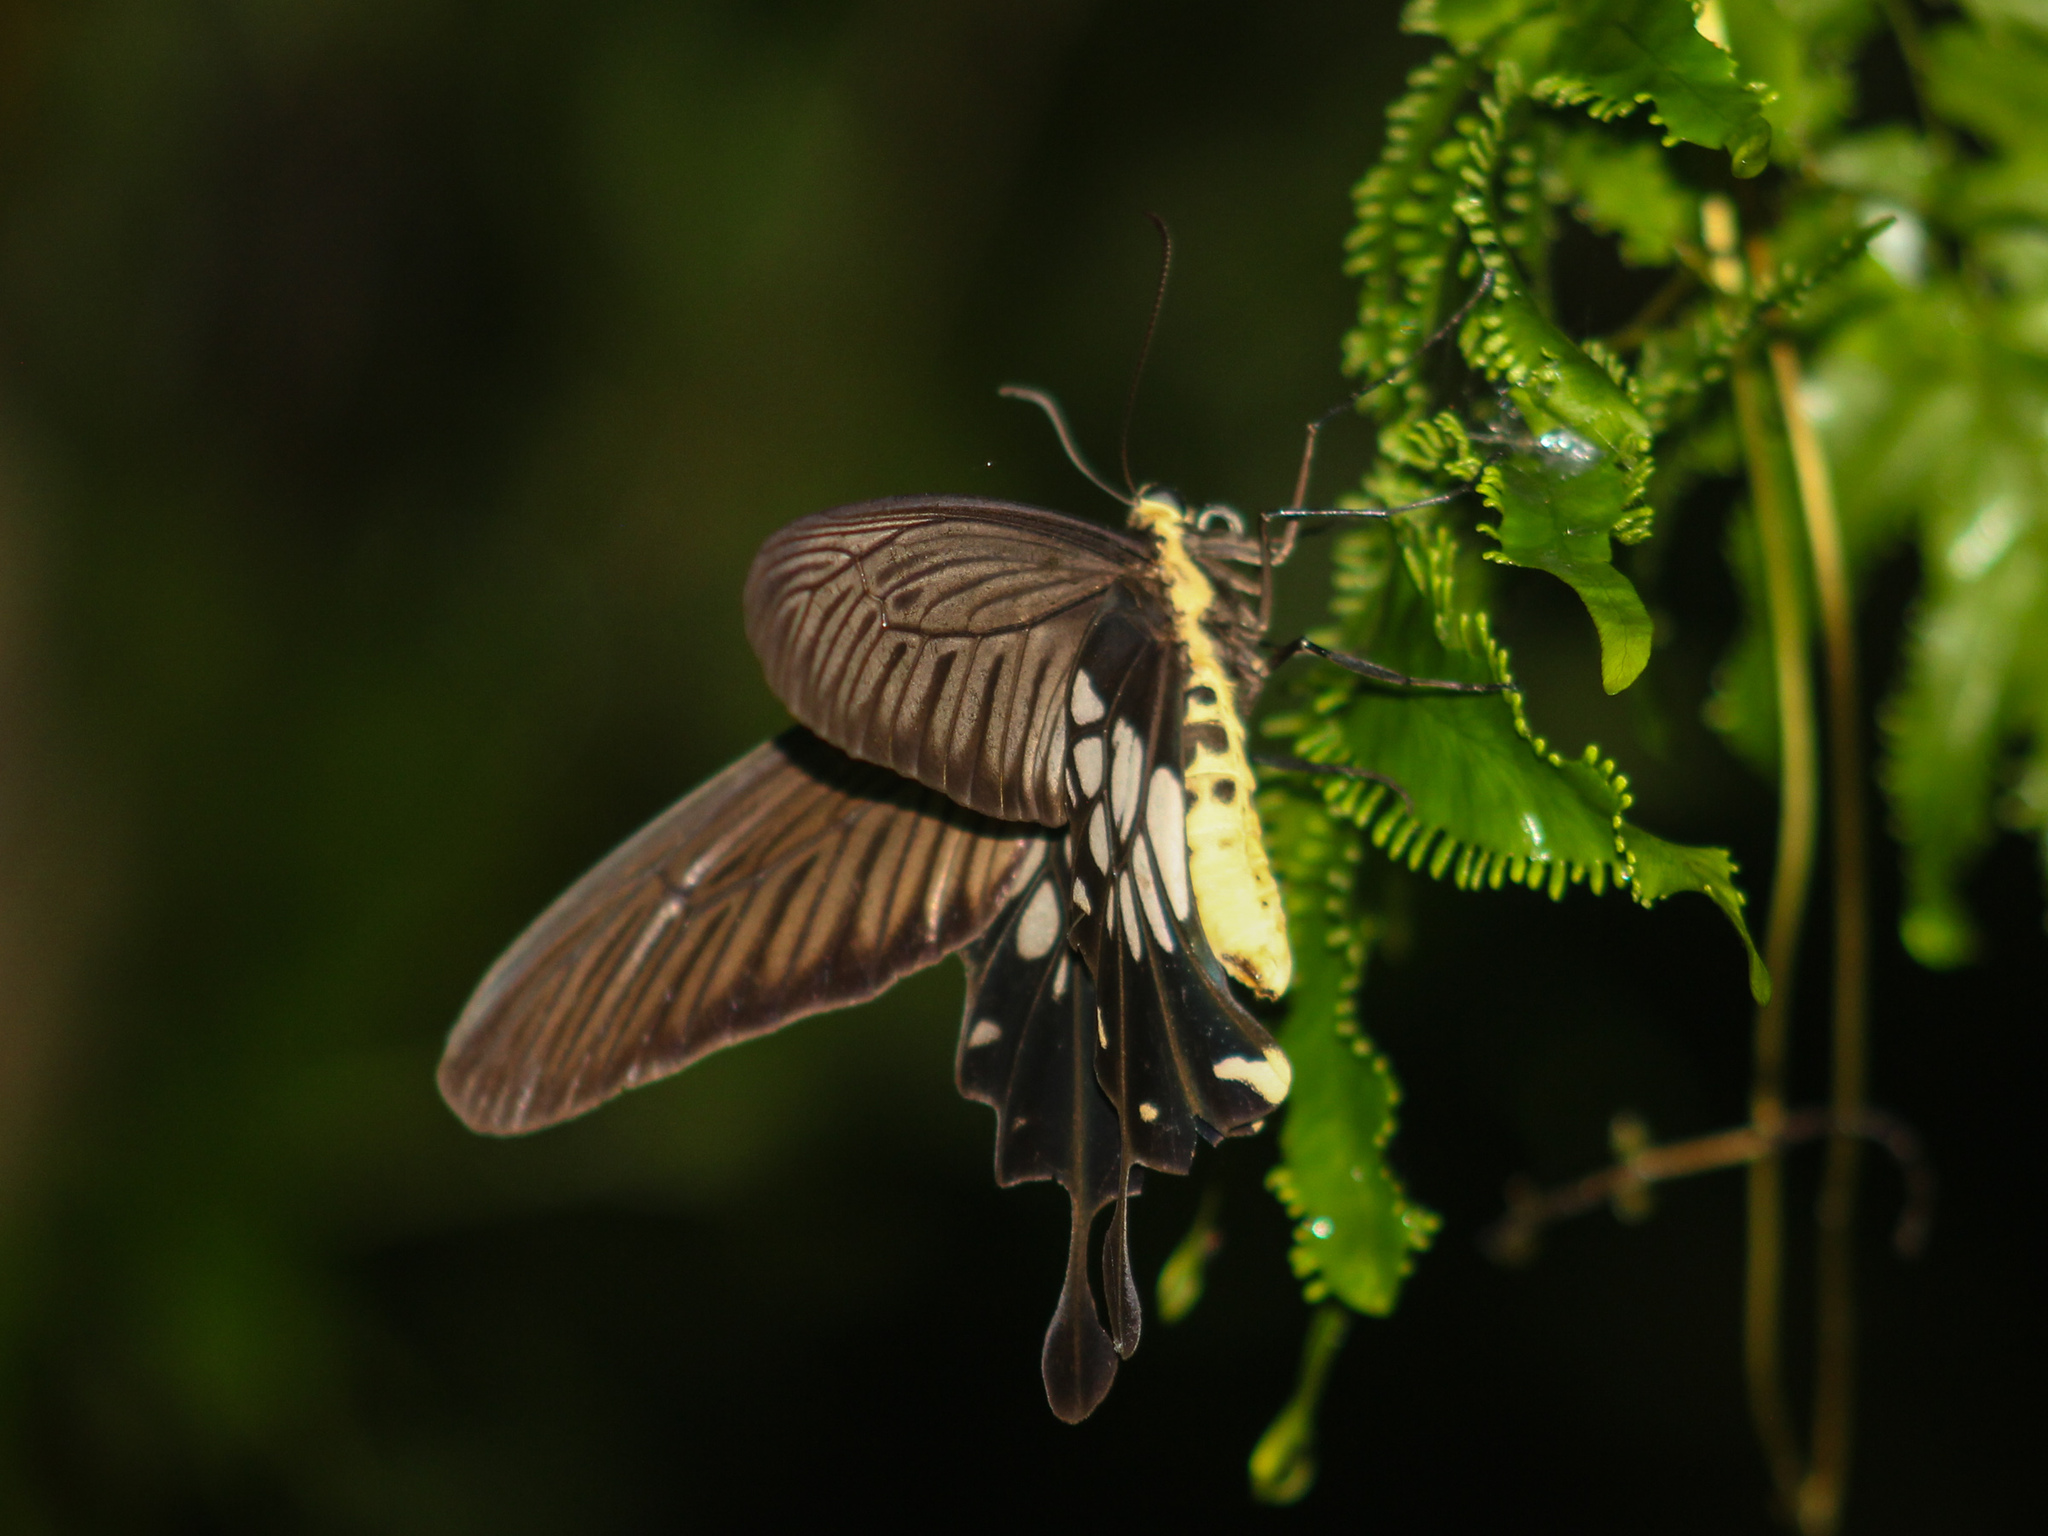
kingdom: Animalia
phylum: Arthropoda
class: Insecta
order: Lepidoptera
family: Papilionidae
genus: Losaria
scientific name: Losaria
